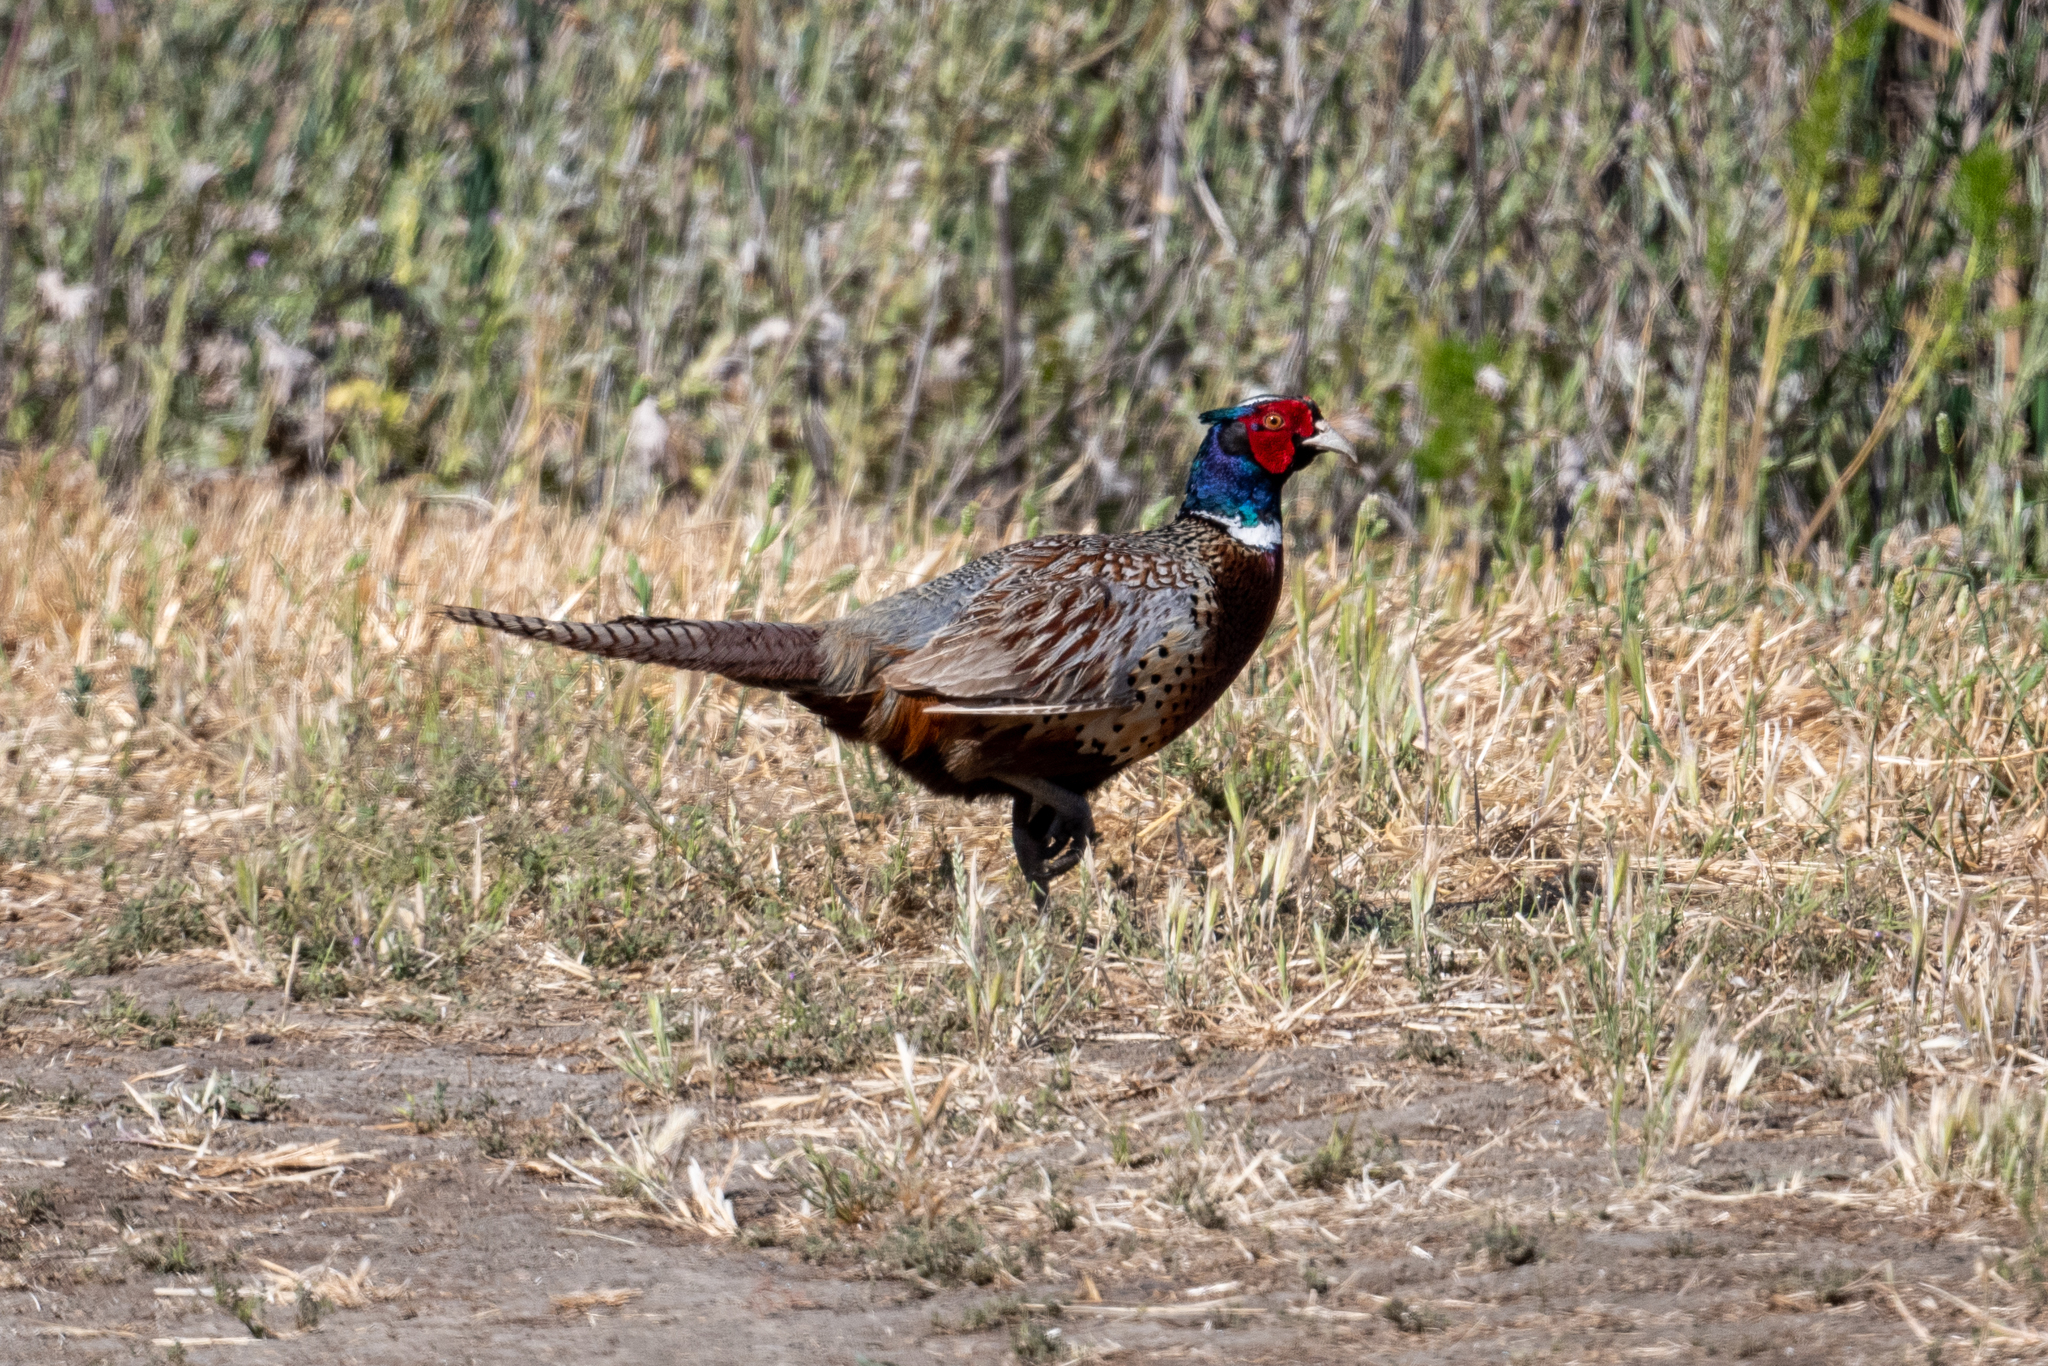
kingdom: Animalia
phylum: Chordata
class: Aves
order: Galliformes
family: Phasianidae
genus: Phasianus
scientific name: Phasianus colchicus
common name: Common pheasant
